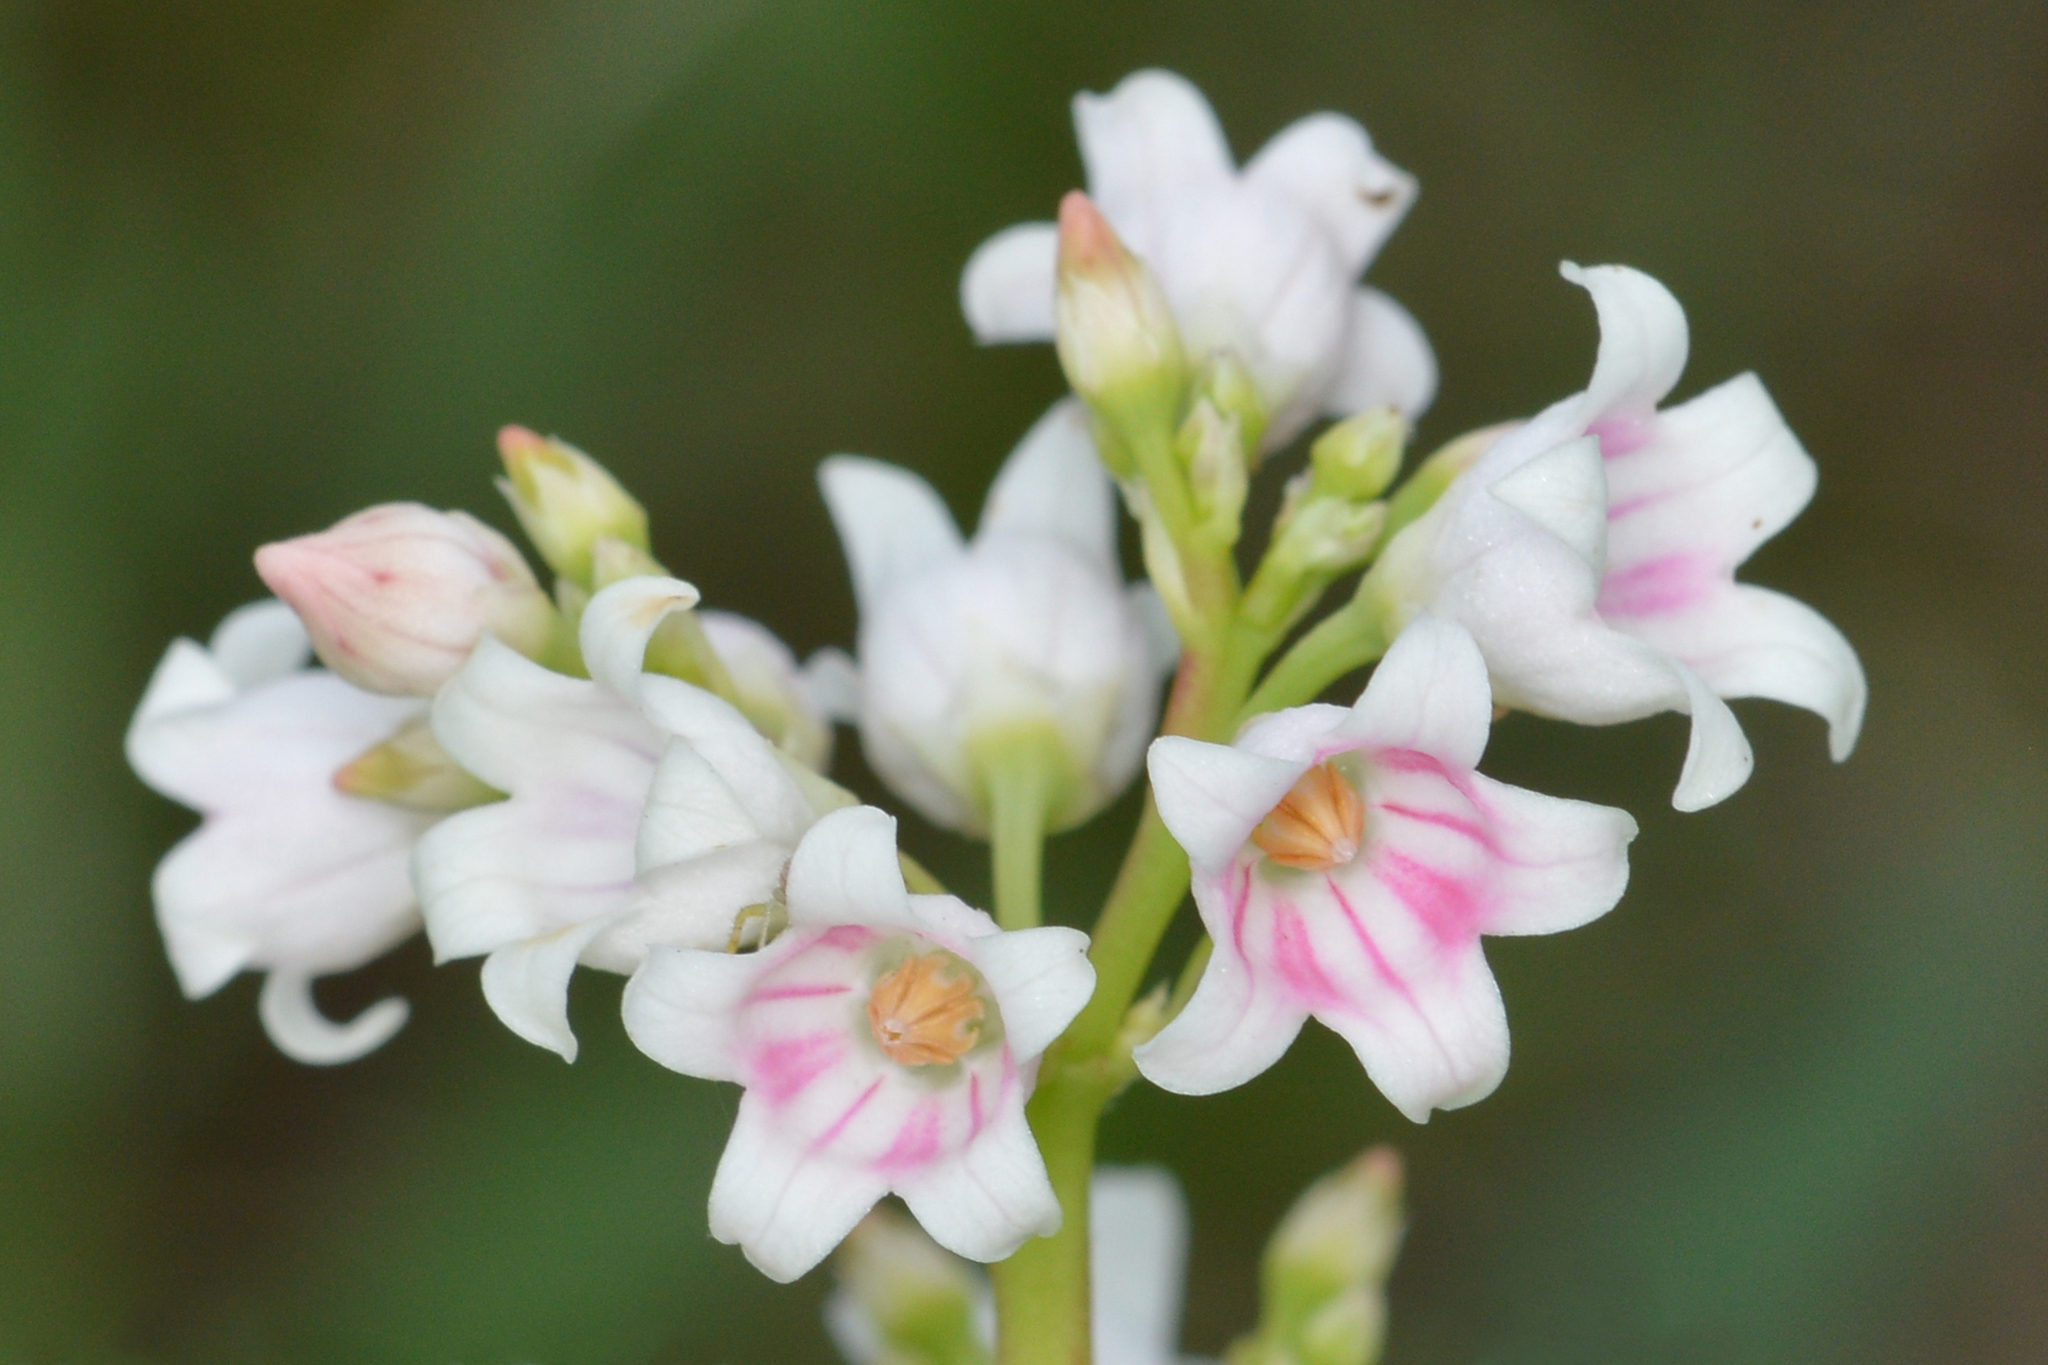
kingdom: Plantae
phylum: Tracheophyta
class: Magnoliopsida
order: Gentianales
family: Apocynaceae
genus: Apocynum
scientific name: Apocynum androsaemifolium
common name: Spreading dogbane
